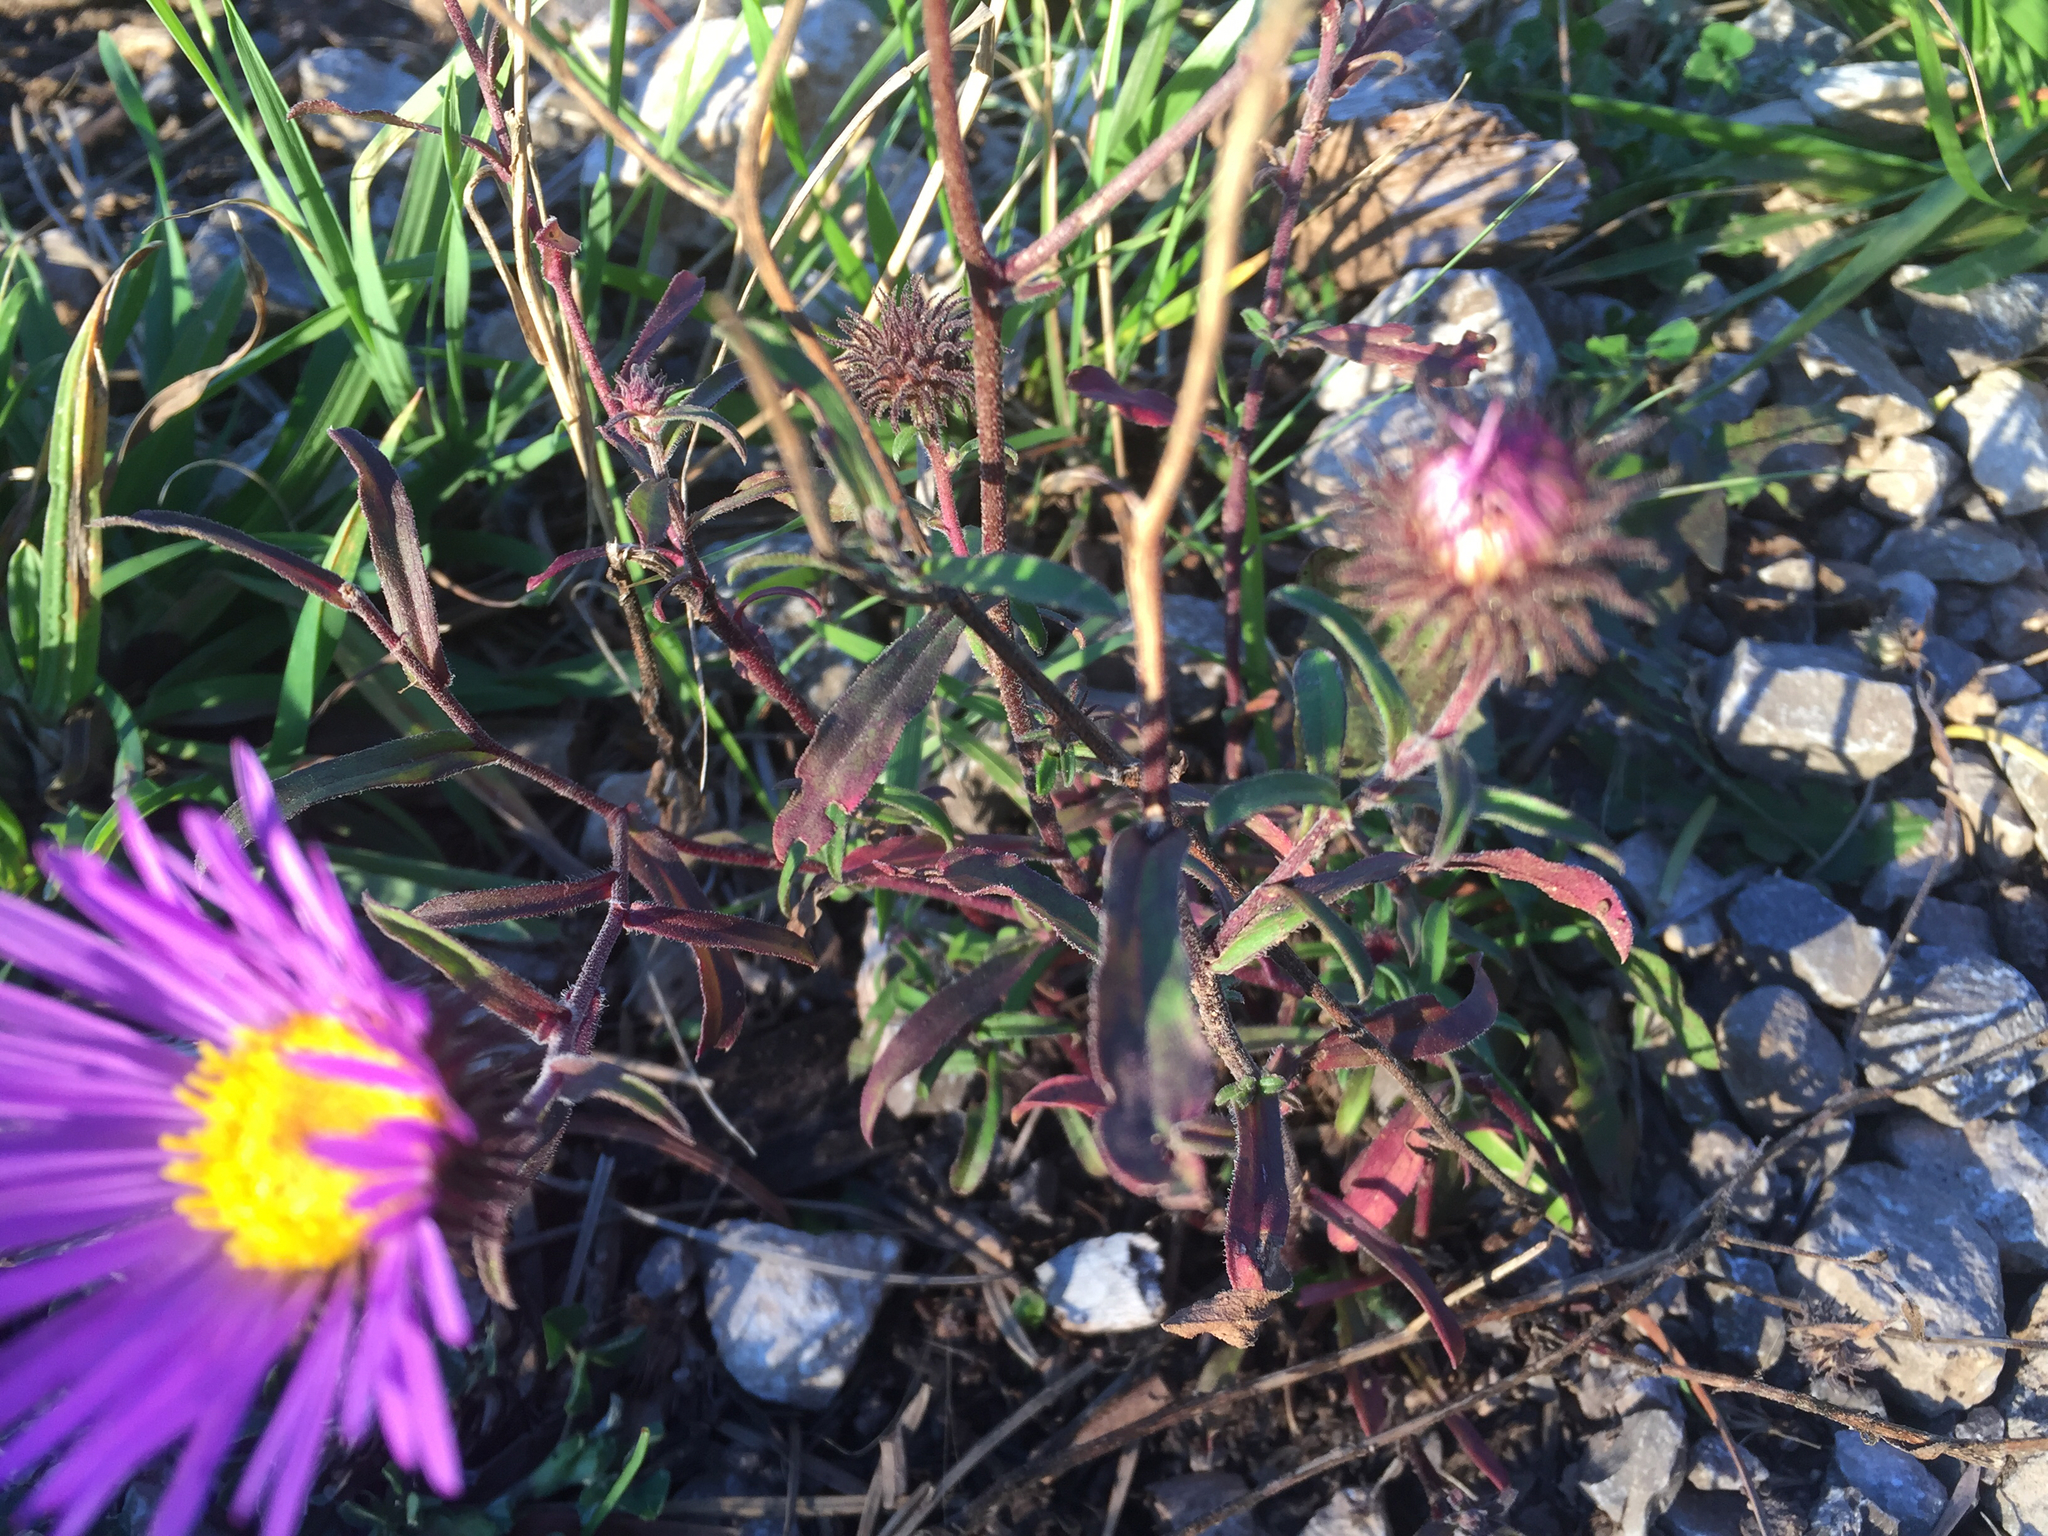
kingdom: Plantae
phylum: Tracheophyta
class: Magnoliopsida
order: Asterales
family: Asteraceae
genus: Dieteria
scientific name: Dieteria asteroides
